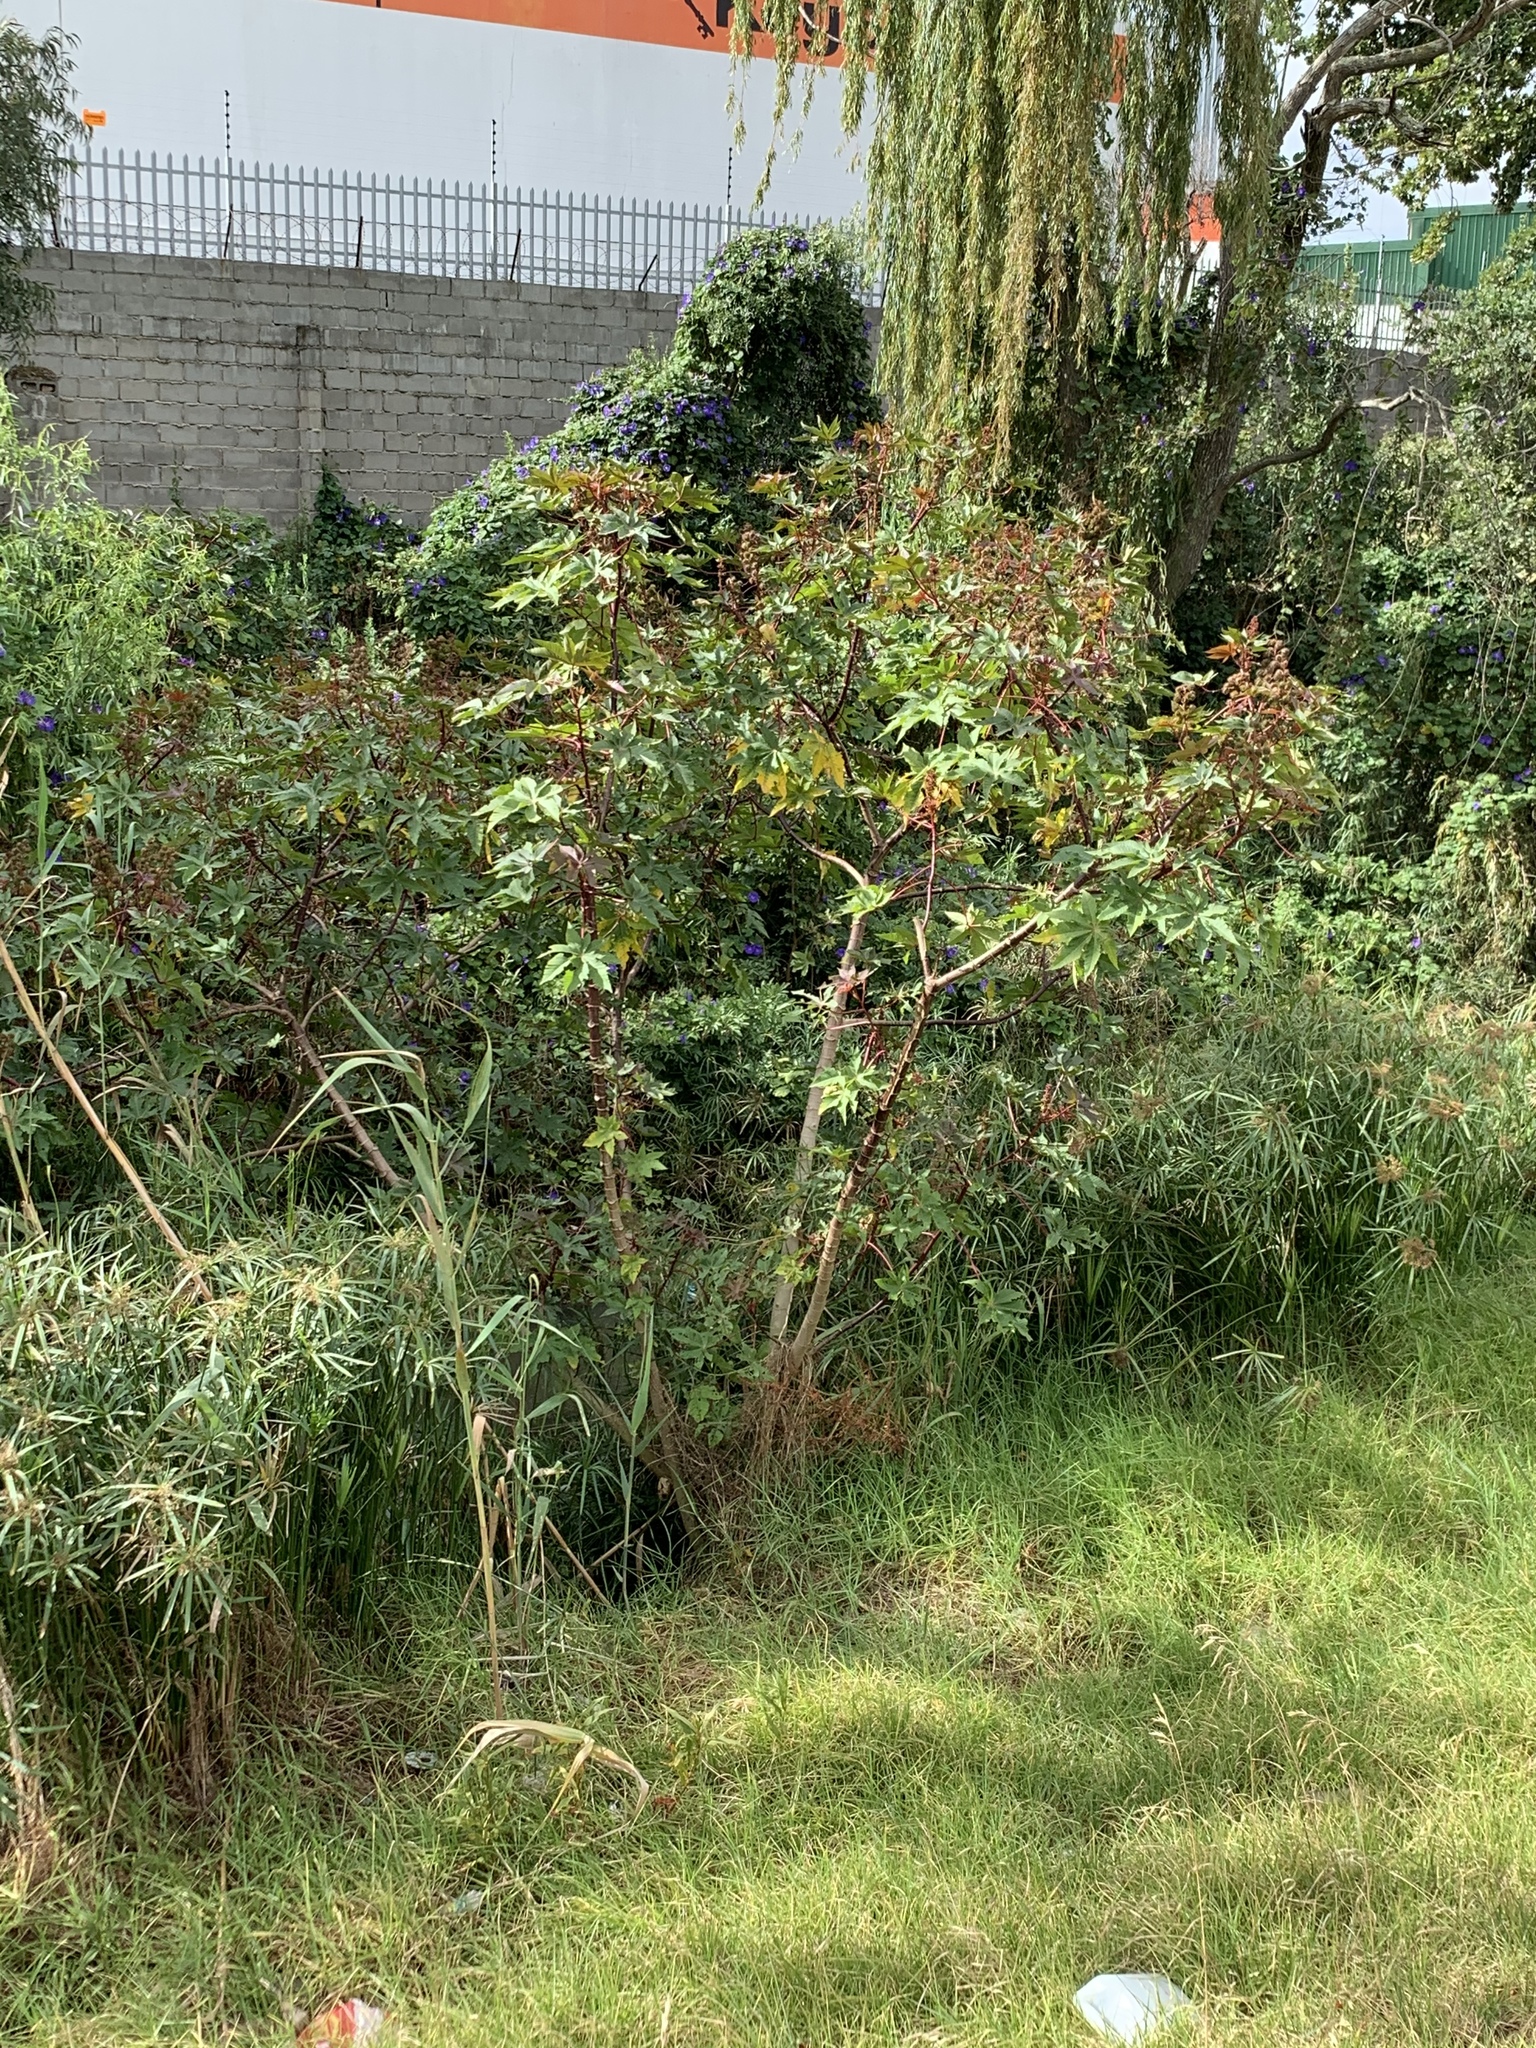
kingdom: Plantae
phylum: Tracheophyta
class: Magnoliopsida
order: Malpighiales
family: Euphorbiaceae
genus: Ricinus
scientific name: Ricinus communis
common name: Castor-oil-plant
